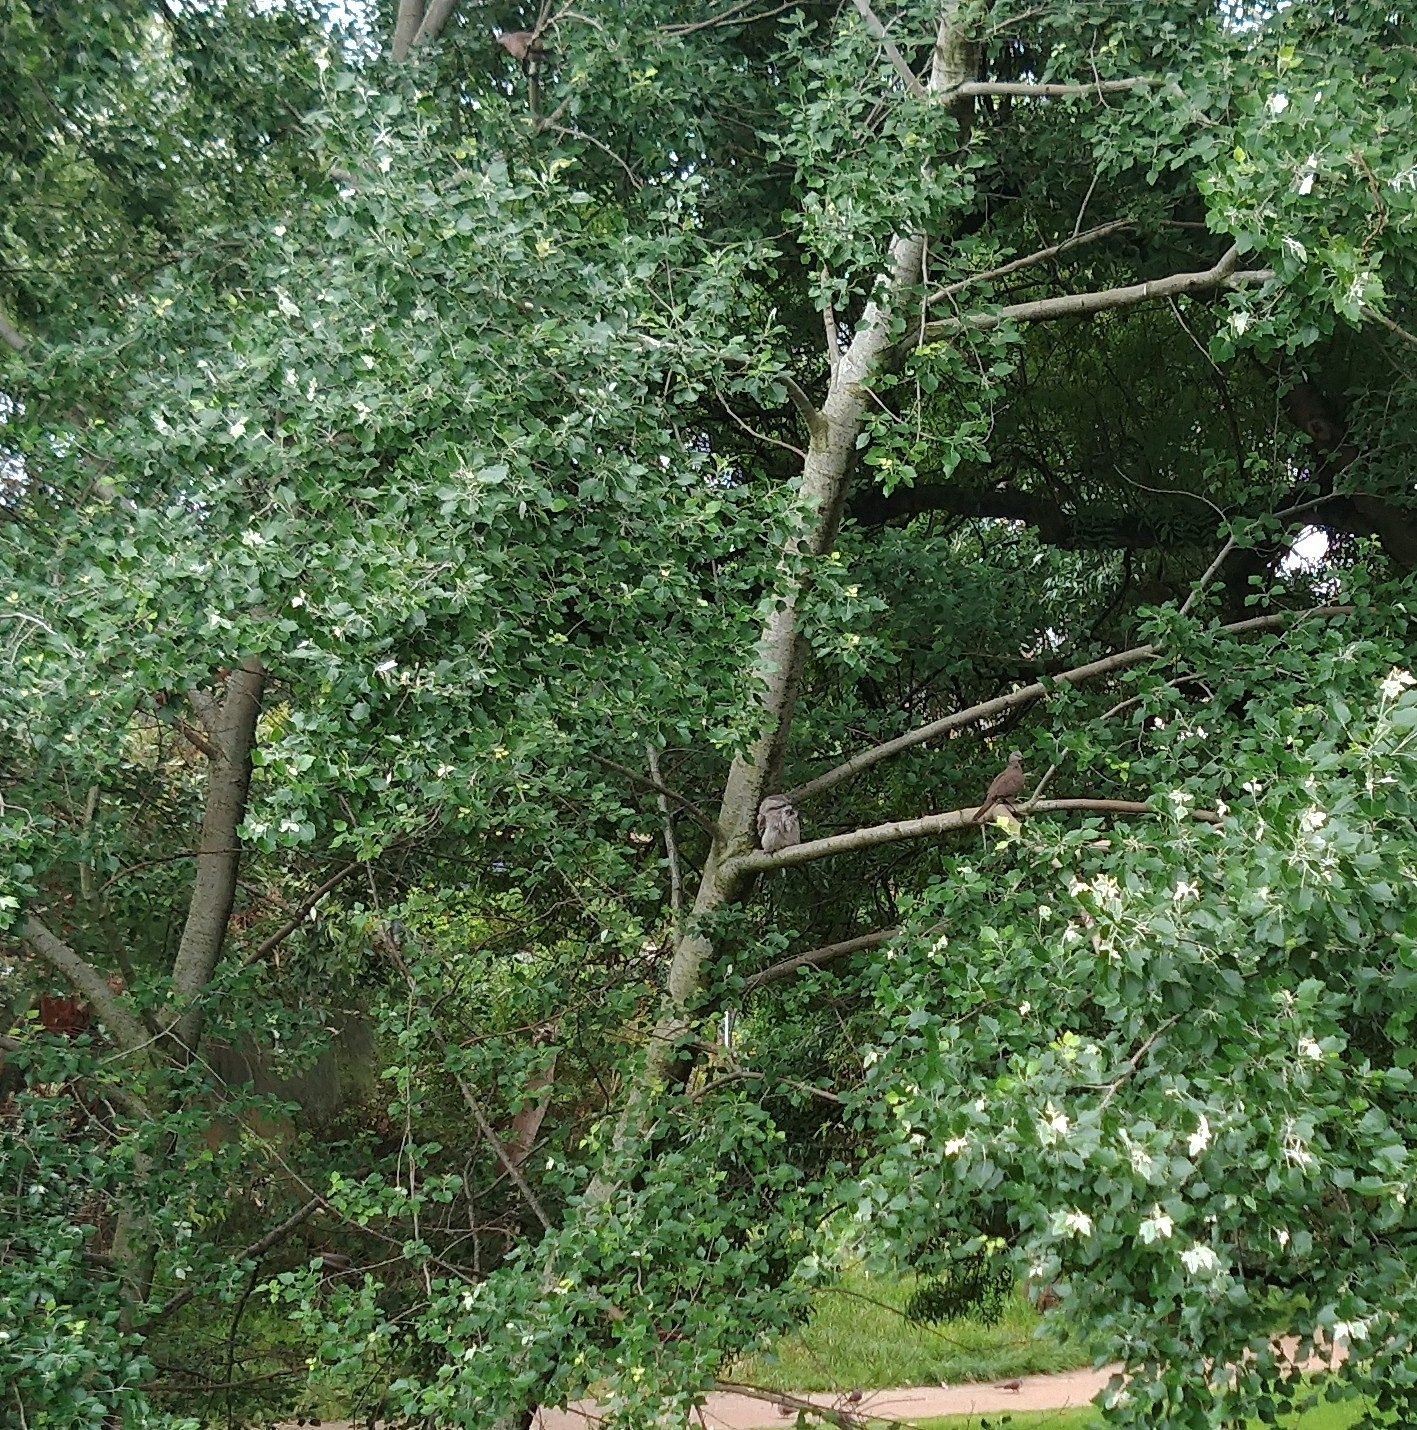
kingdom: Animalia
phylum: Chordata
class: Aves
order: Caprimulgiformes
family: Podargidae
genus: Podargus
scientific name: Podargus strigoides
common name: Tawny frogmouth
